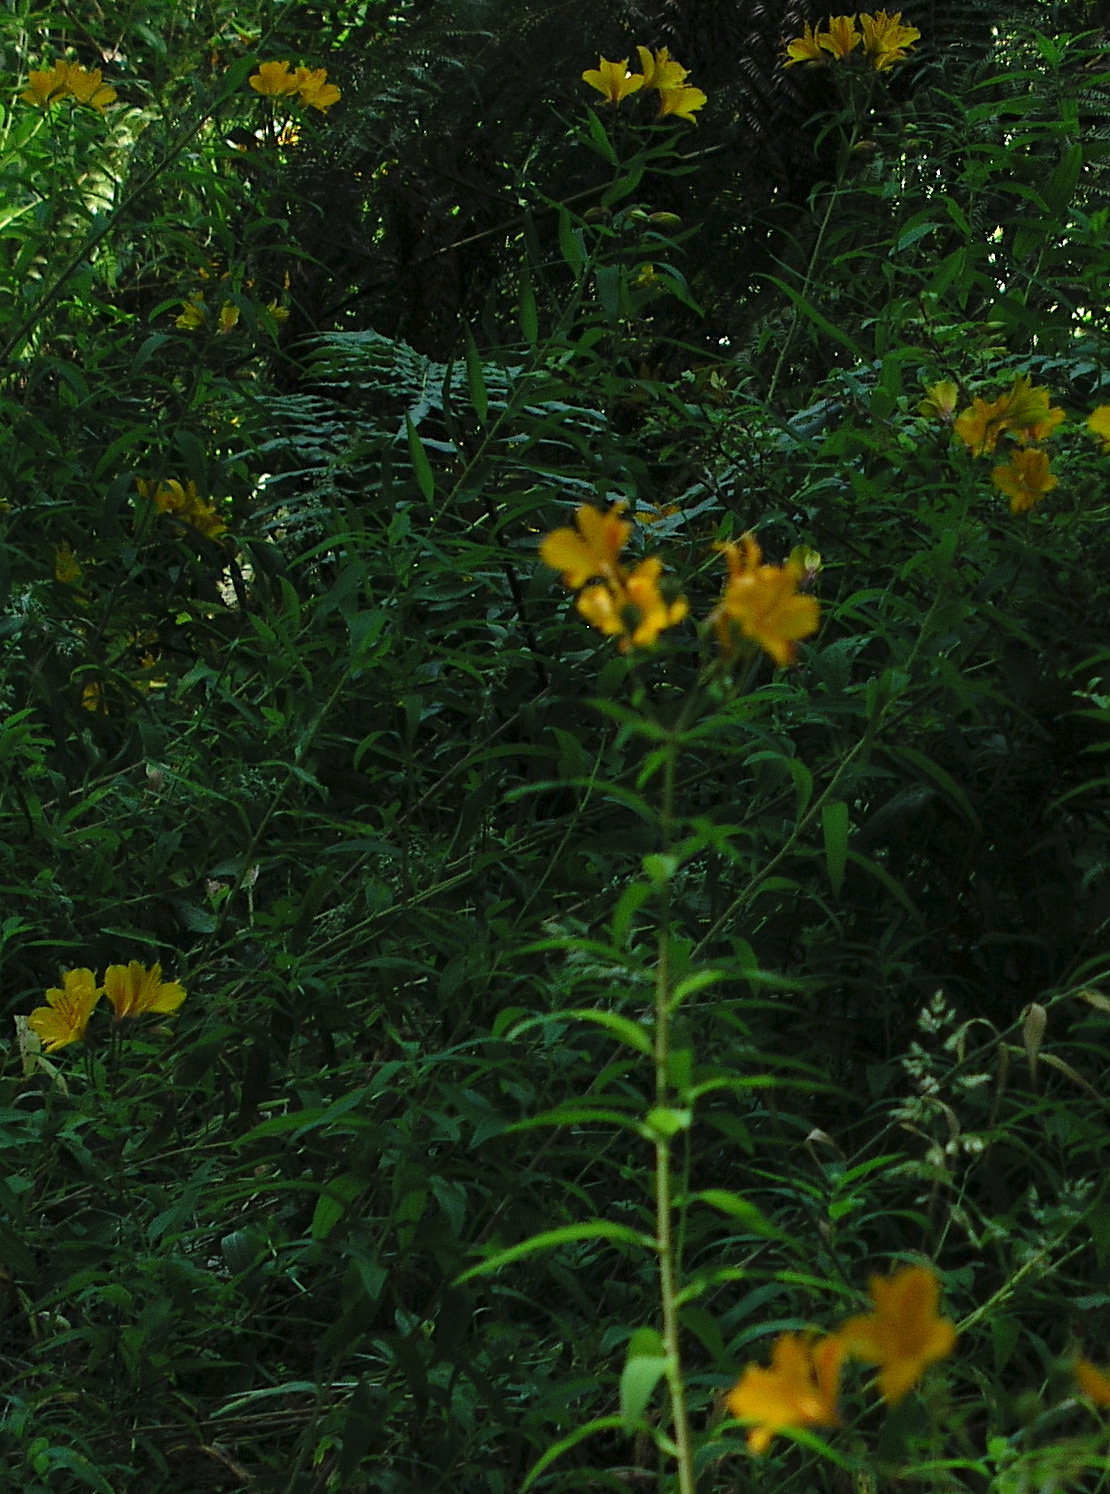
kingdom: Plantae
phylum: Tracheophyta
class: Liliopsida
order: Liliales
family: Alstroemeriaceae
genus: Alstroemeria
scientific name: Alstroemeria aurea
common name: Peruvian lily
